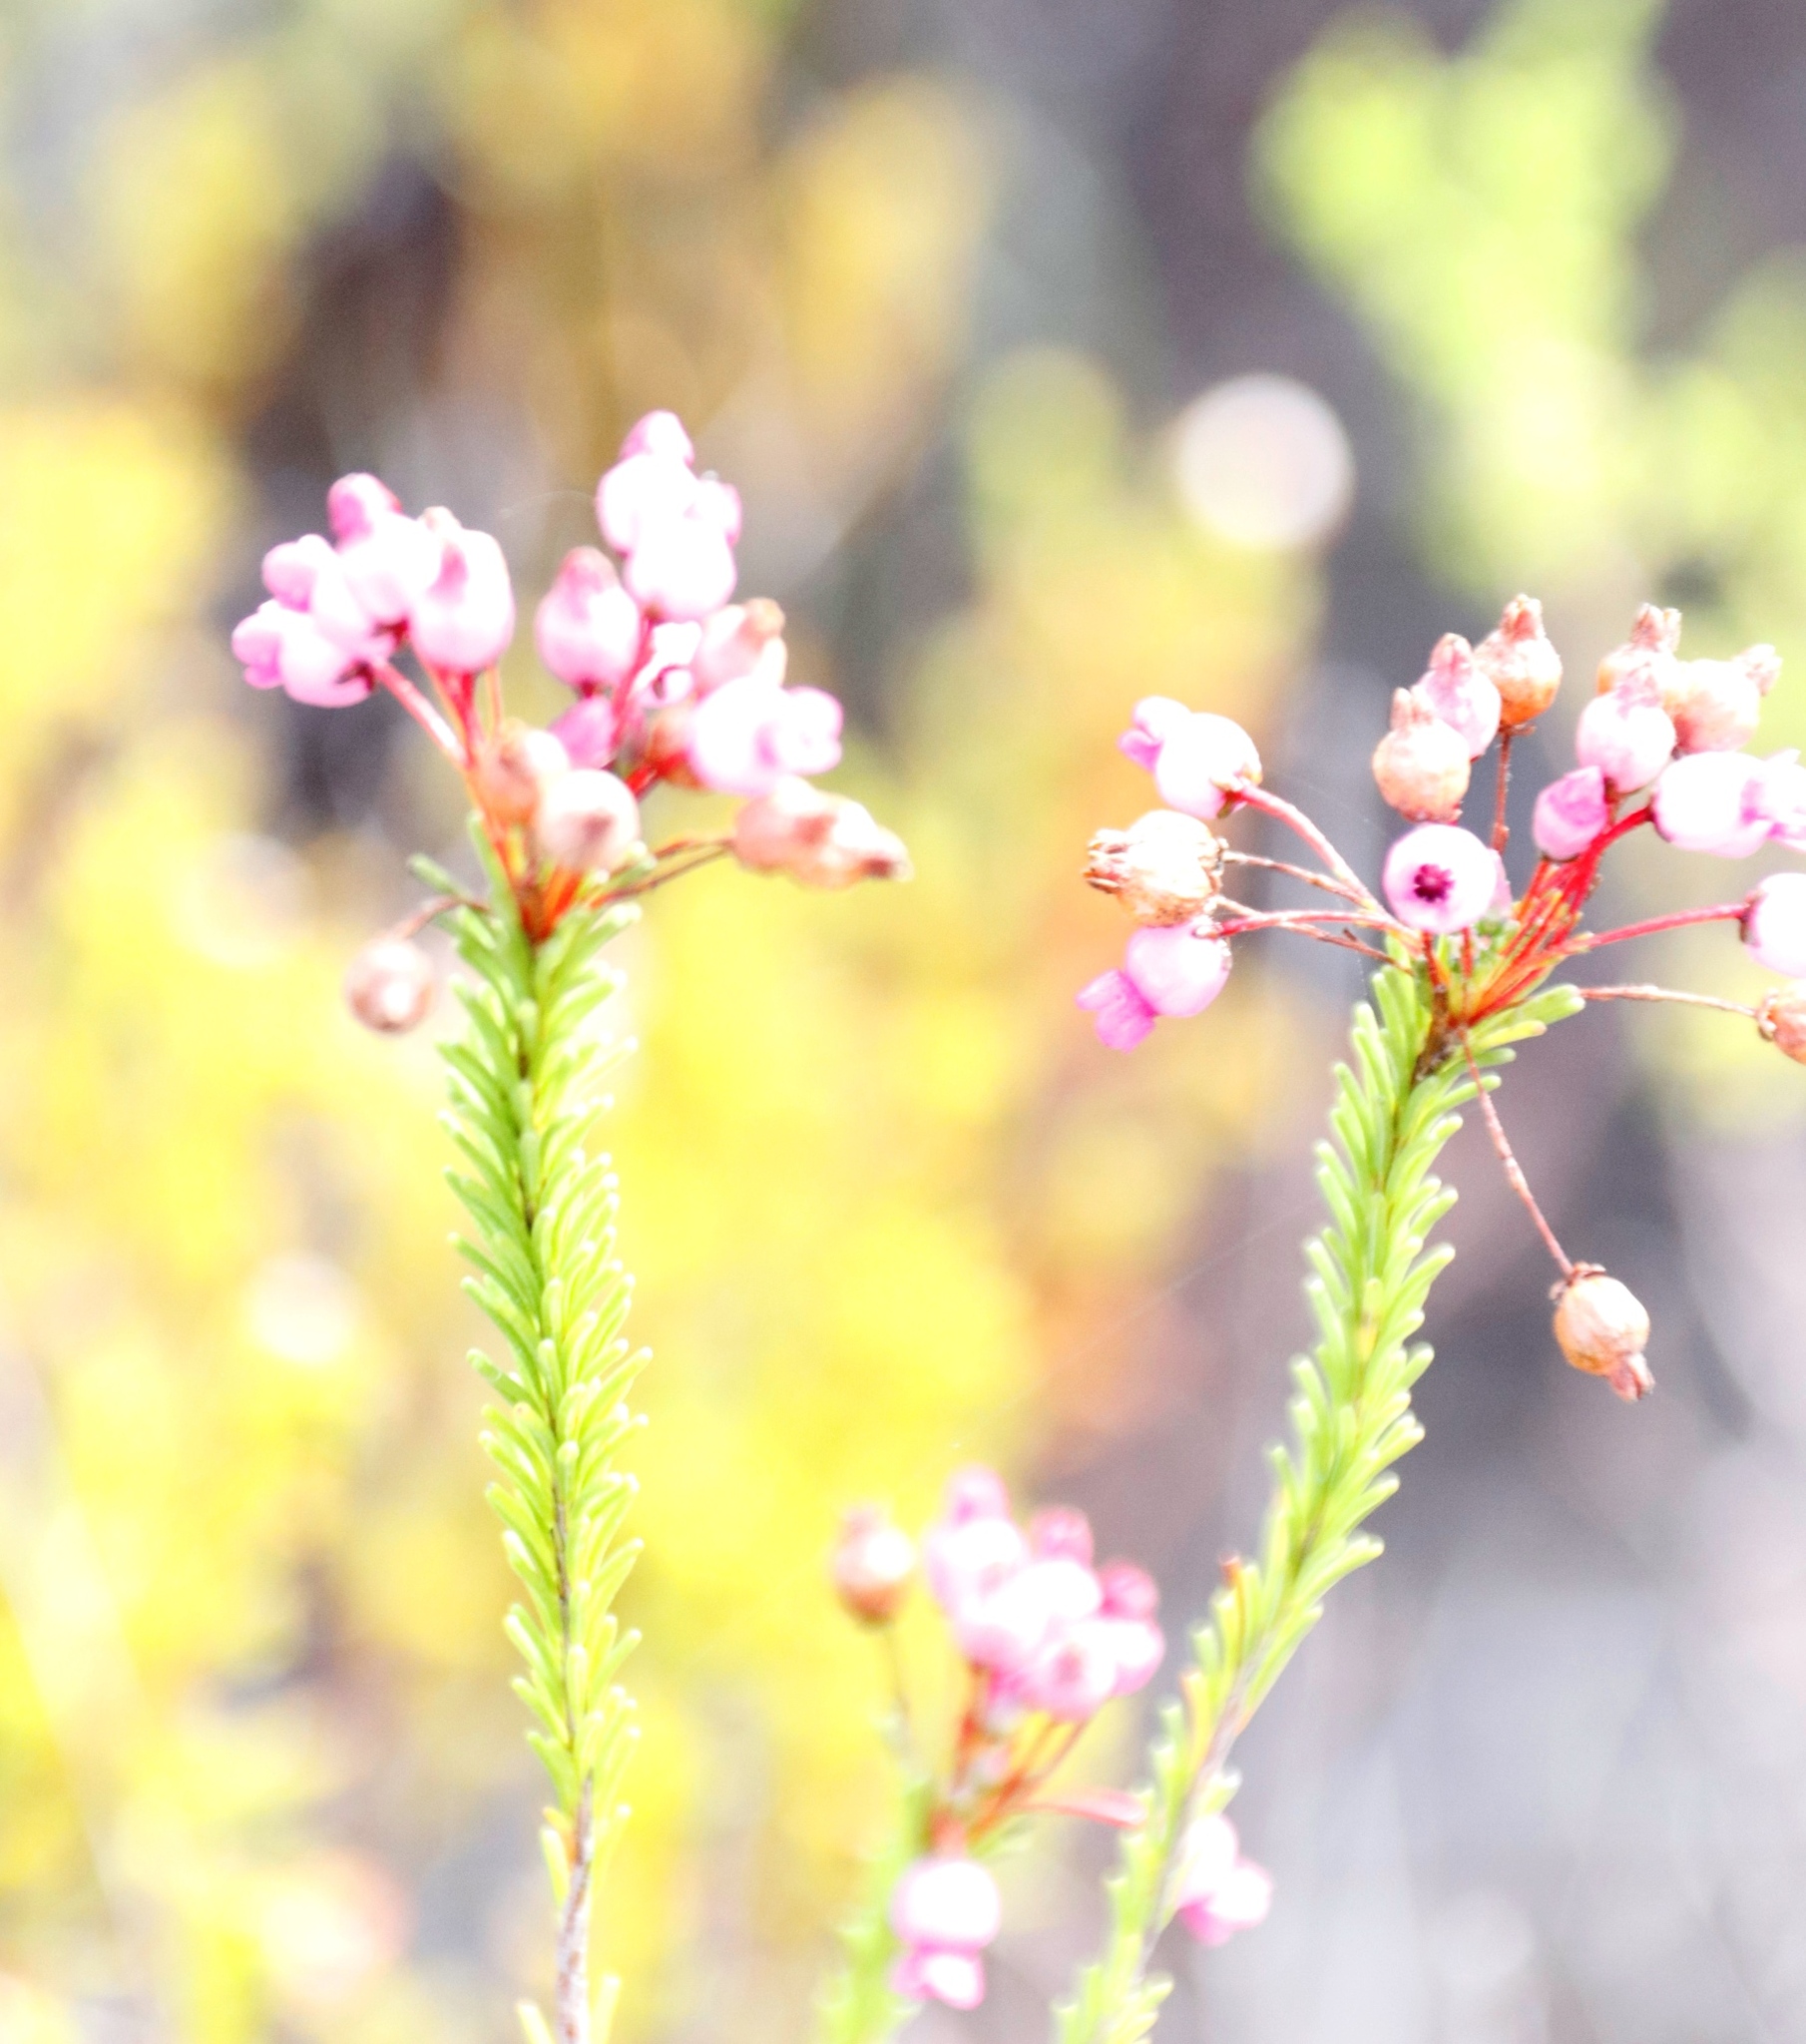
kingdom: Plantae
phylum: Tracheophyta
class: Magnoliopsida
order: Ericales
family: Ericaceae
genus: Erica
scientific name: Erica obliqua
